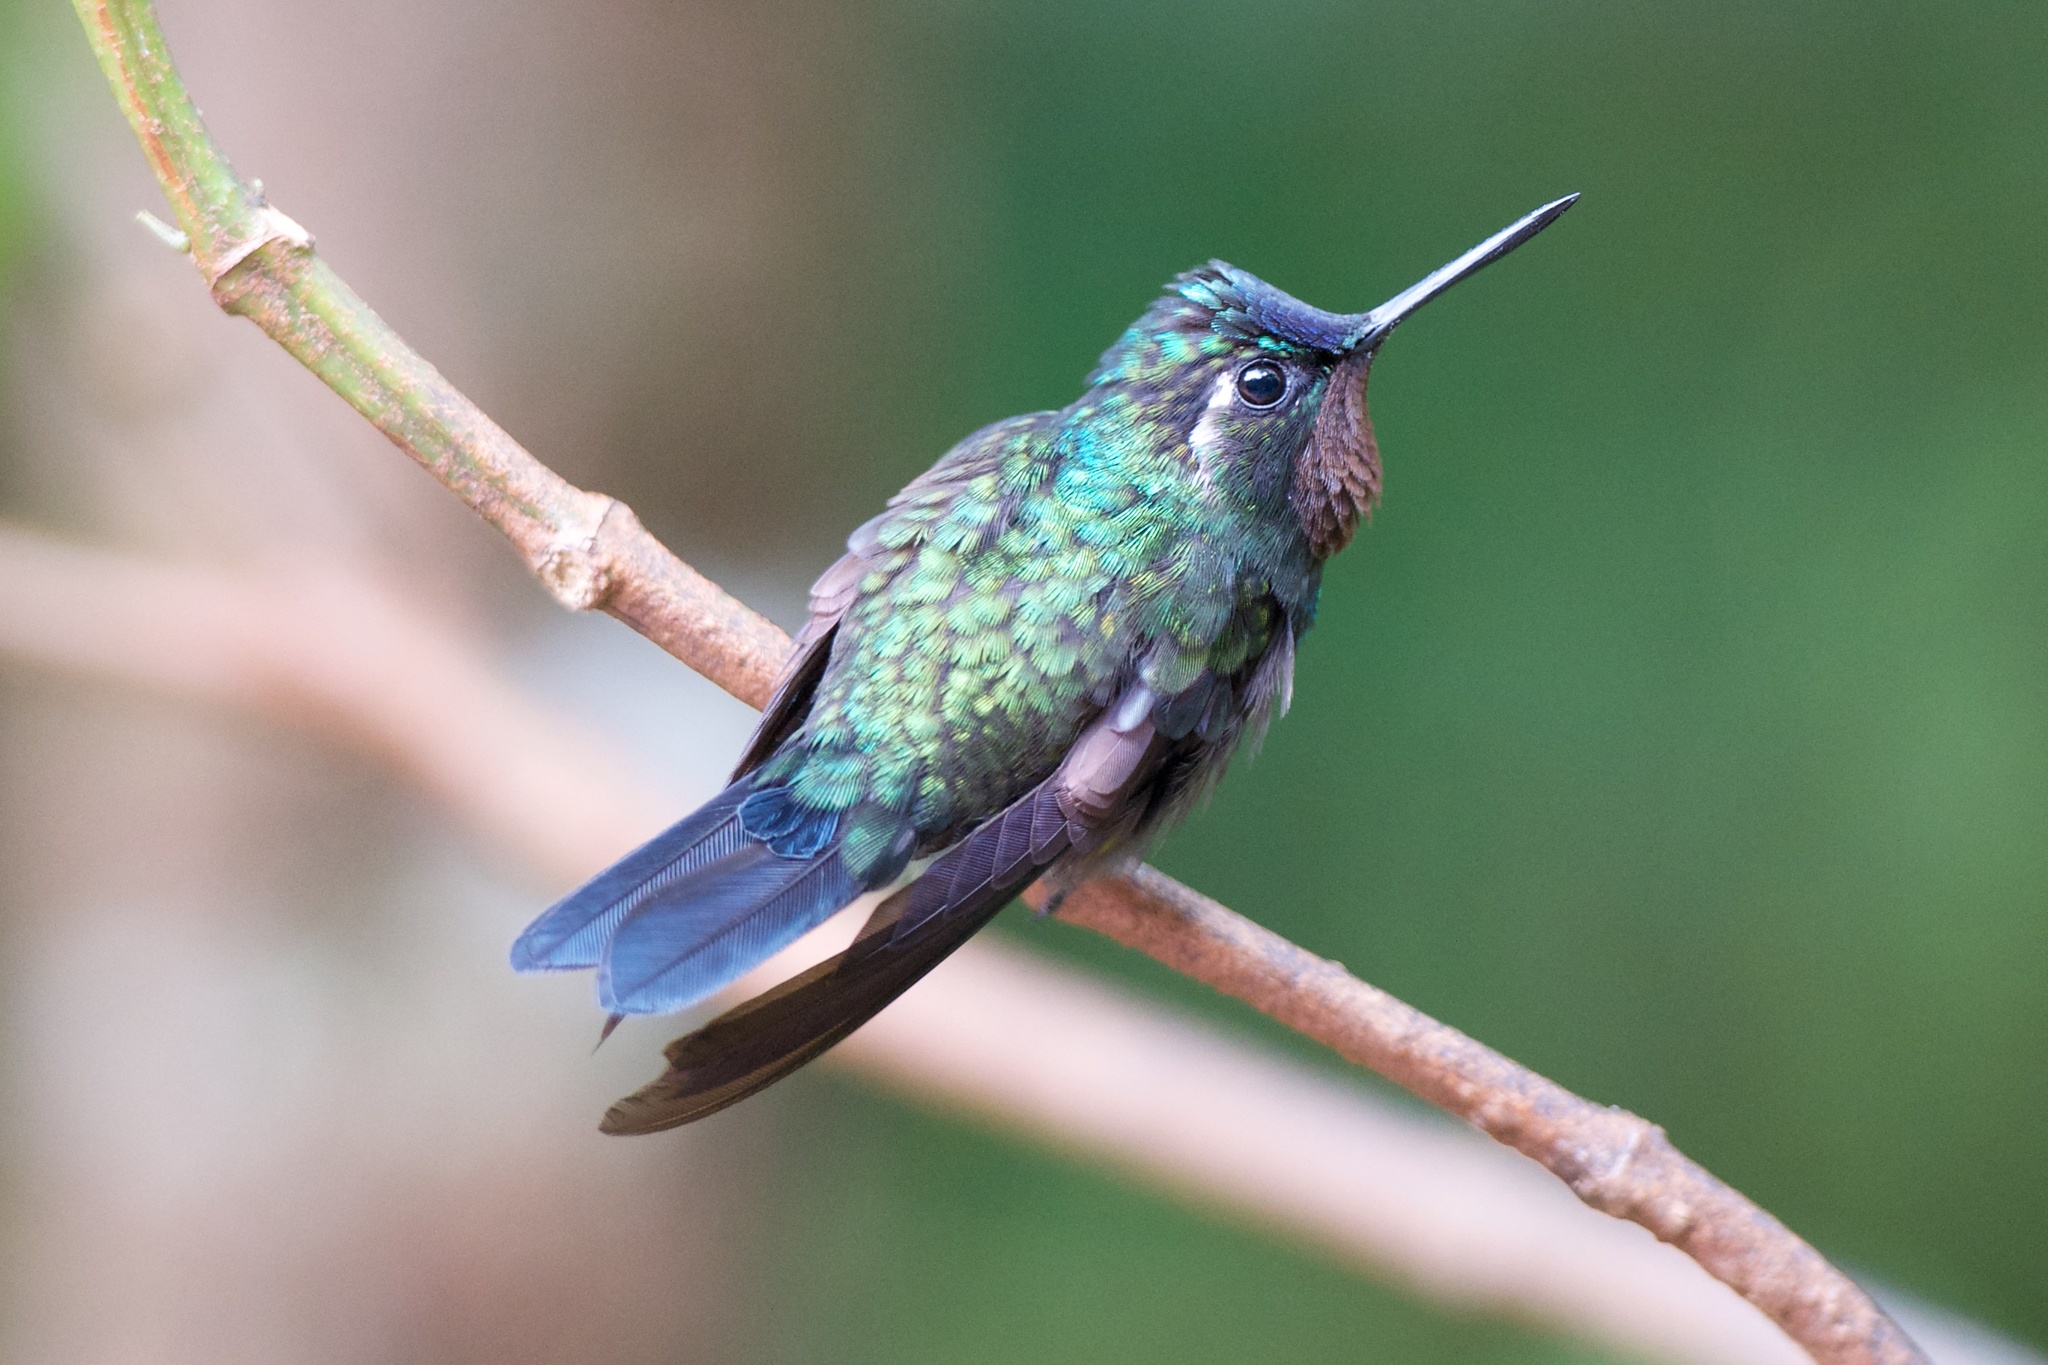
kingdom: Animalia
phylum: Chordata
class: Aves
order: Apodiformes
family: Trochilidae
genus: Lampornis
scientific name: Lampornis calolaemus
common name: Purple-throated mountain-gem
